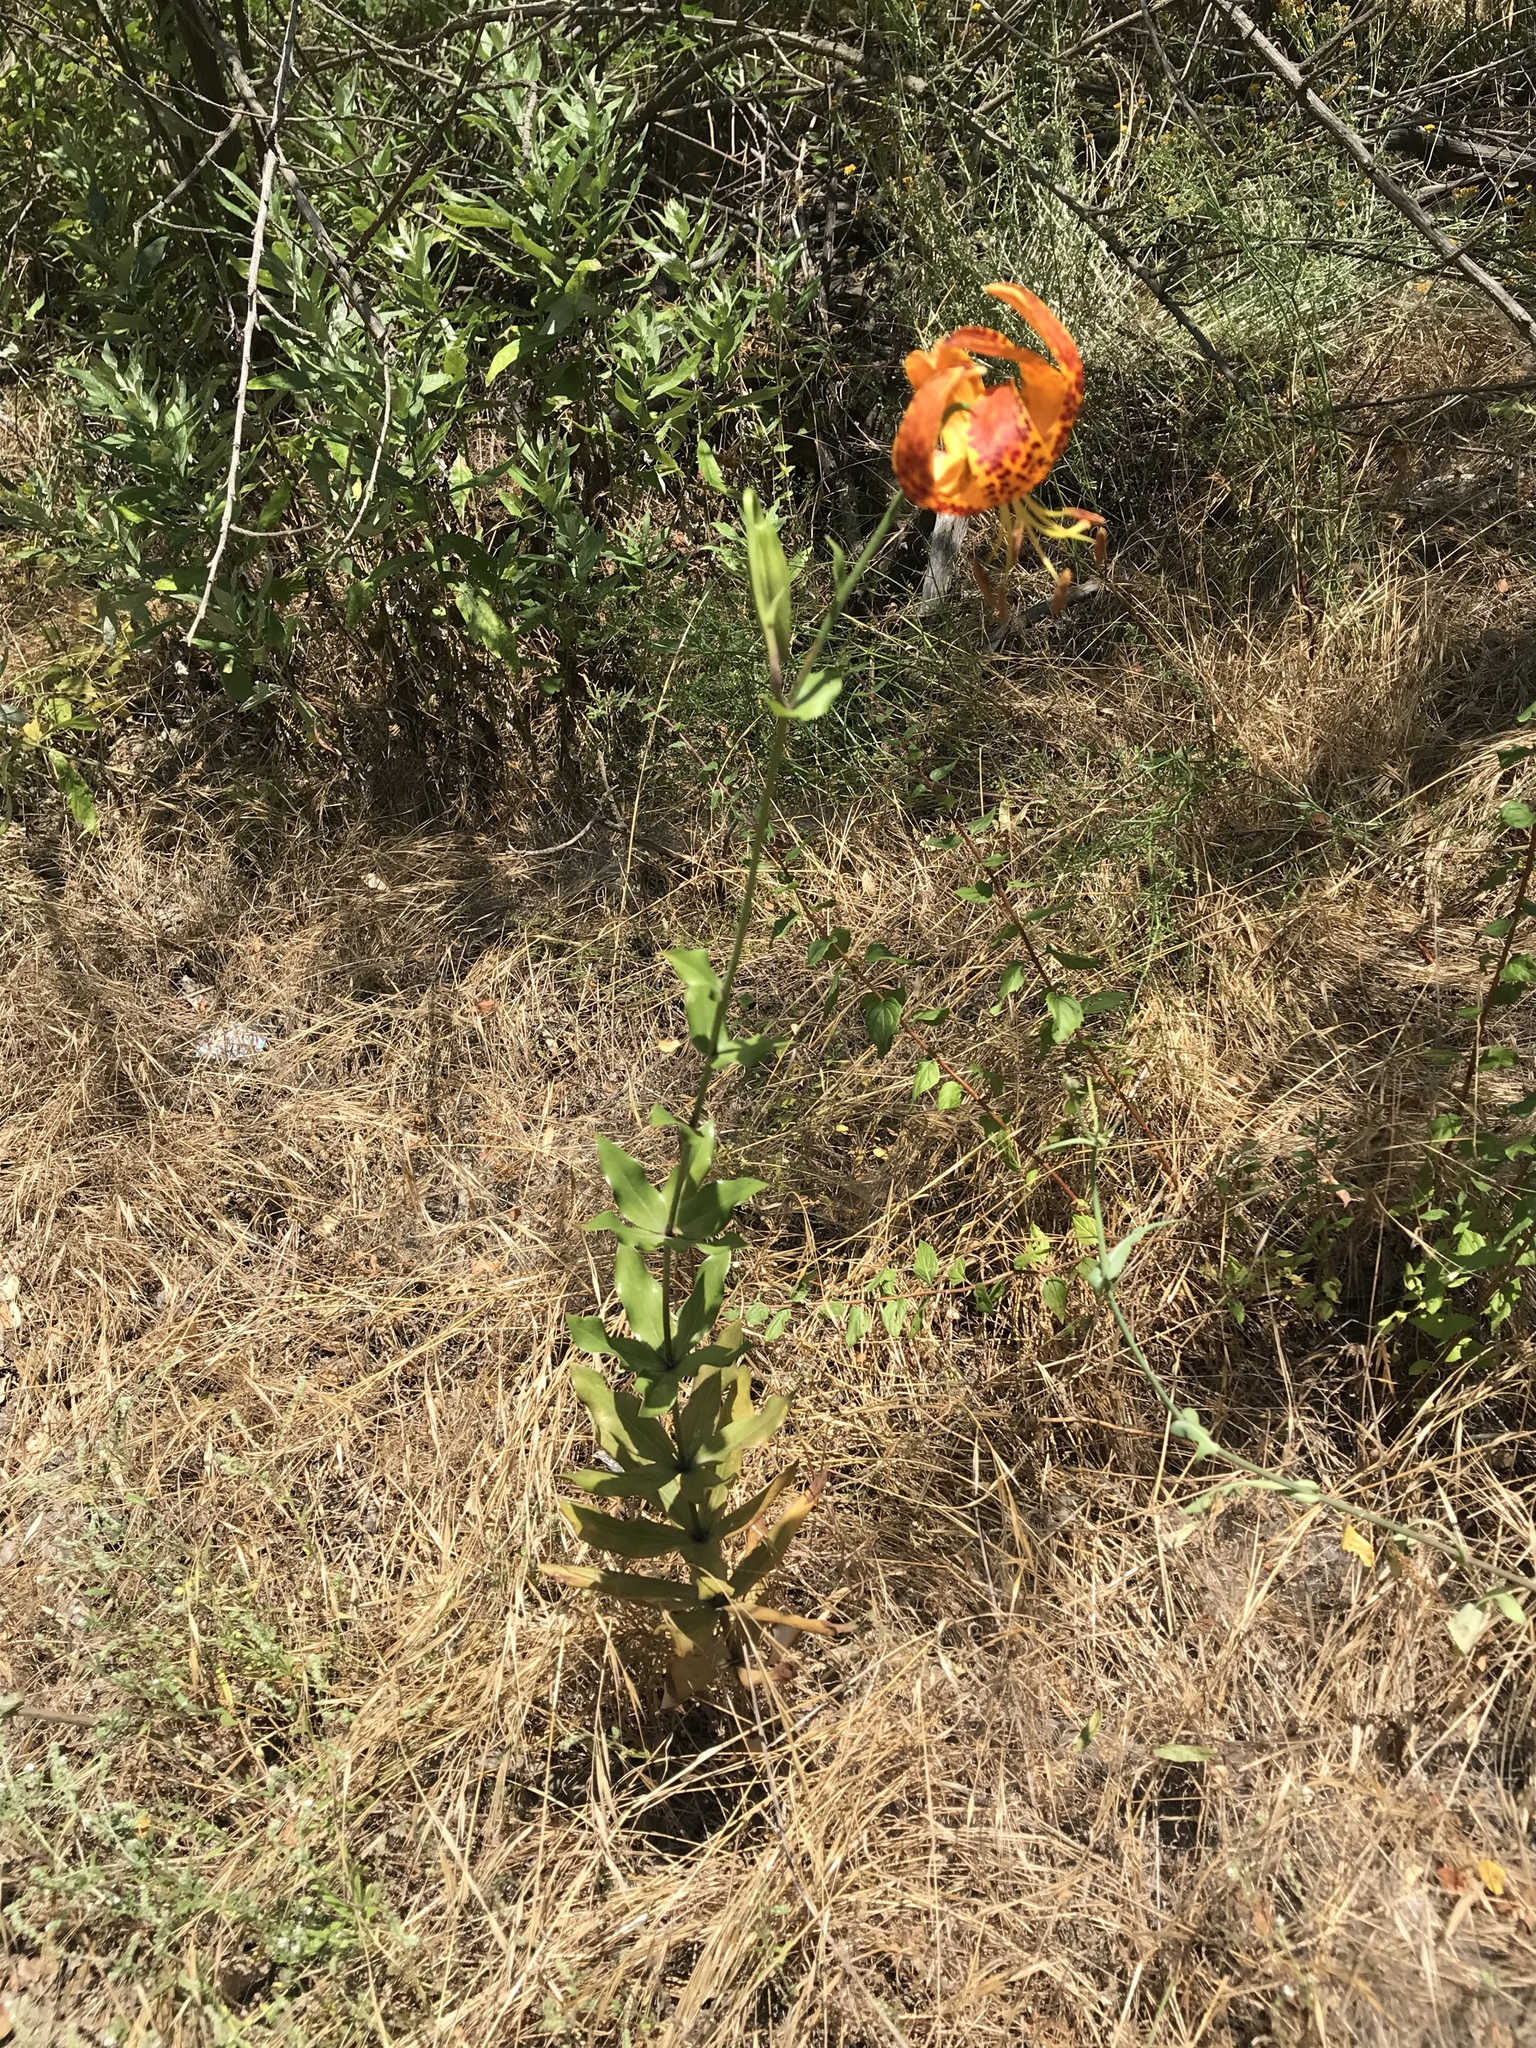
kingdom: Plantae
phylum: Tracheophyta
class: Liliopsida
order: Liliales
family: Liliaceae
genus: Lilium
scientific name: Lilium humboldtii
